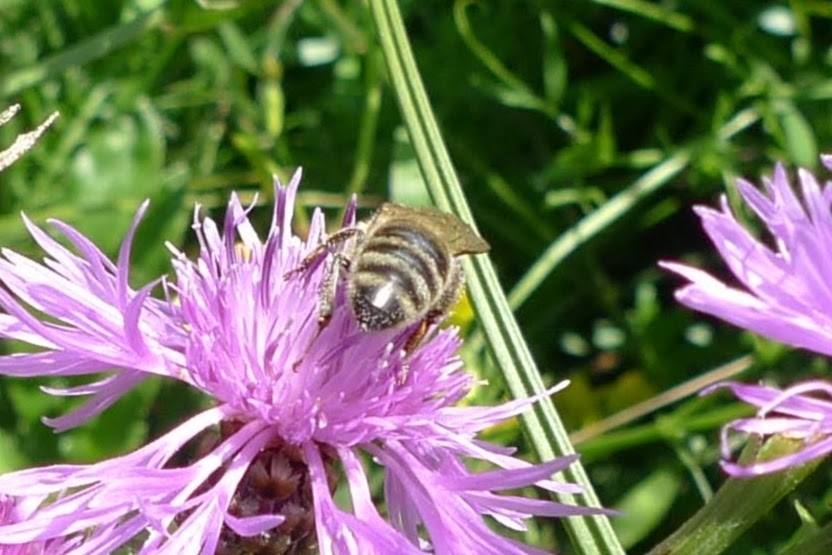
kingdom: Animalia
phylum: Arthropoda
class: Insecta
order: Hymenoptera
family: Apidae
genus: Apis
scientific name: Apis mellifera
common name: Honey bee
